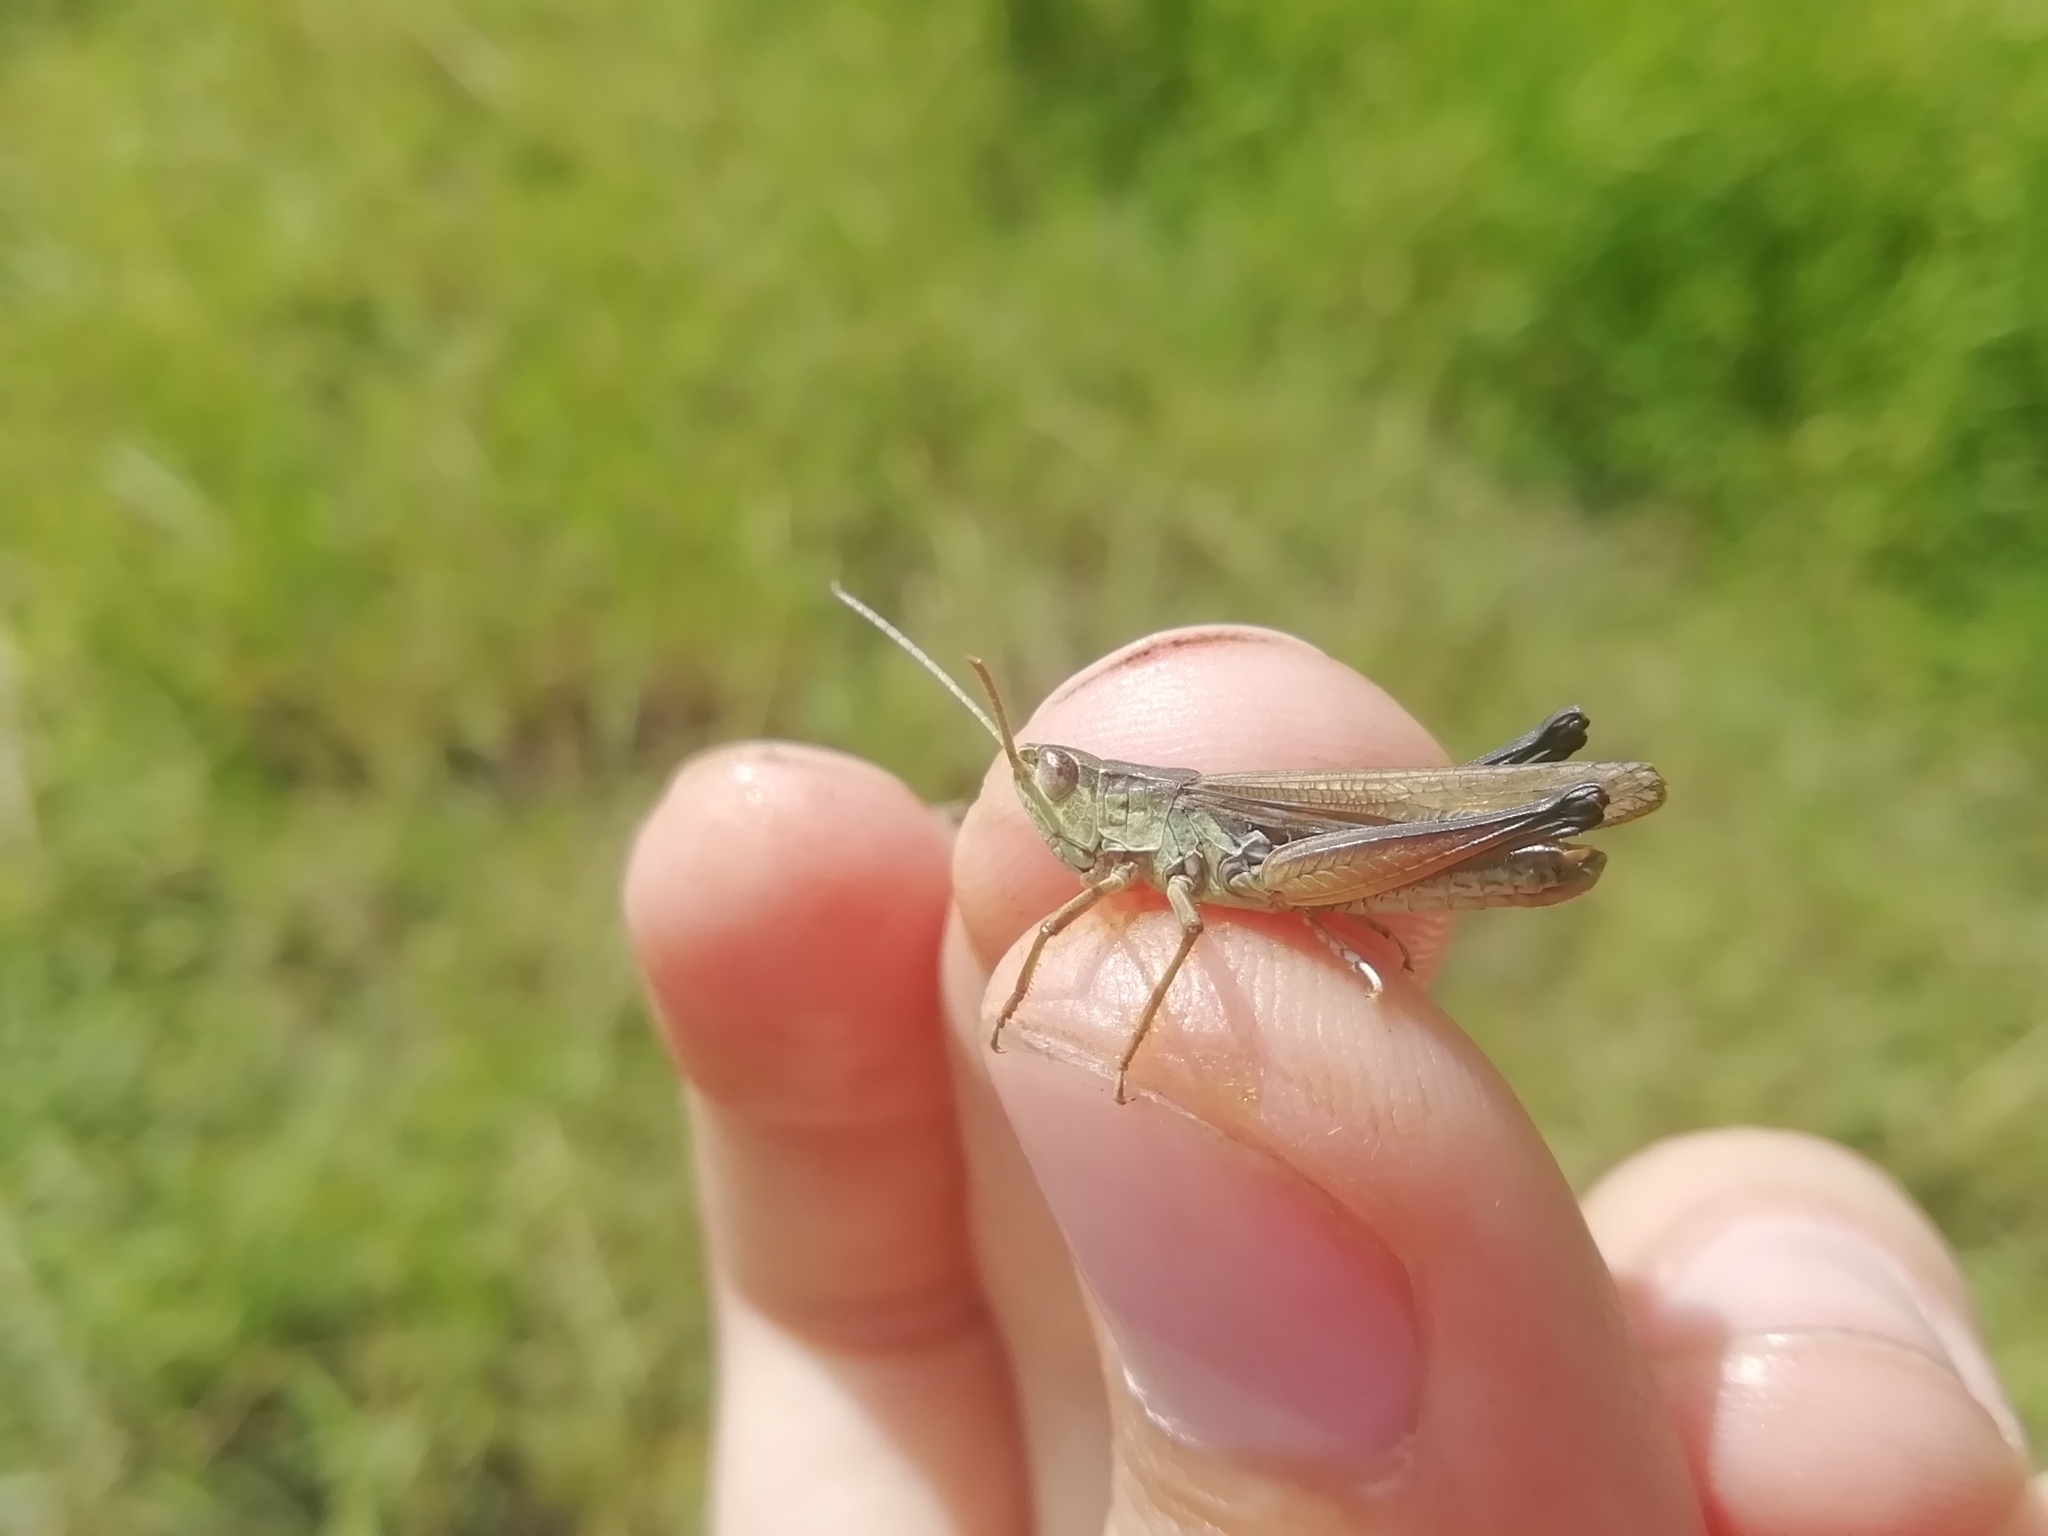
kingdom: Animalia
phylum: Arthropoda
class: Insecta
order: Orthoptera
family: Acrididae
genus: Chorthippus
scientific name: Chorthippus karelini
